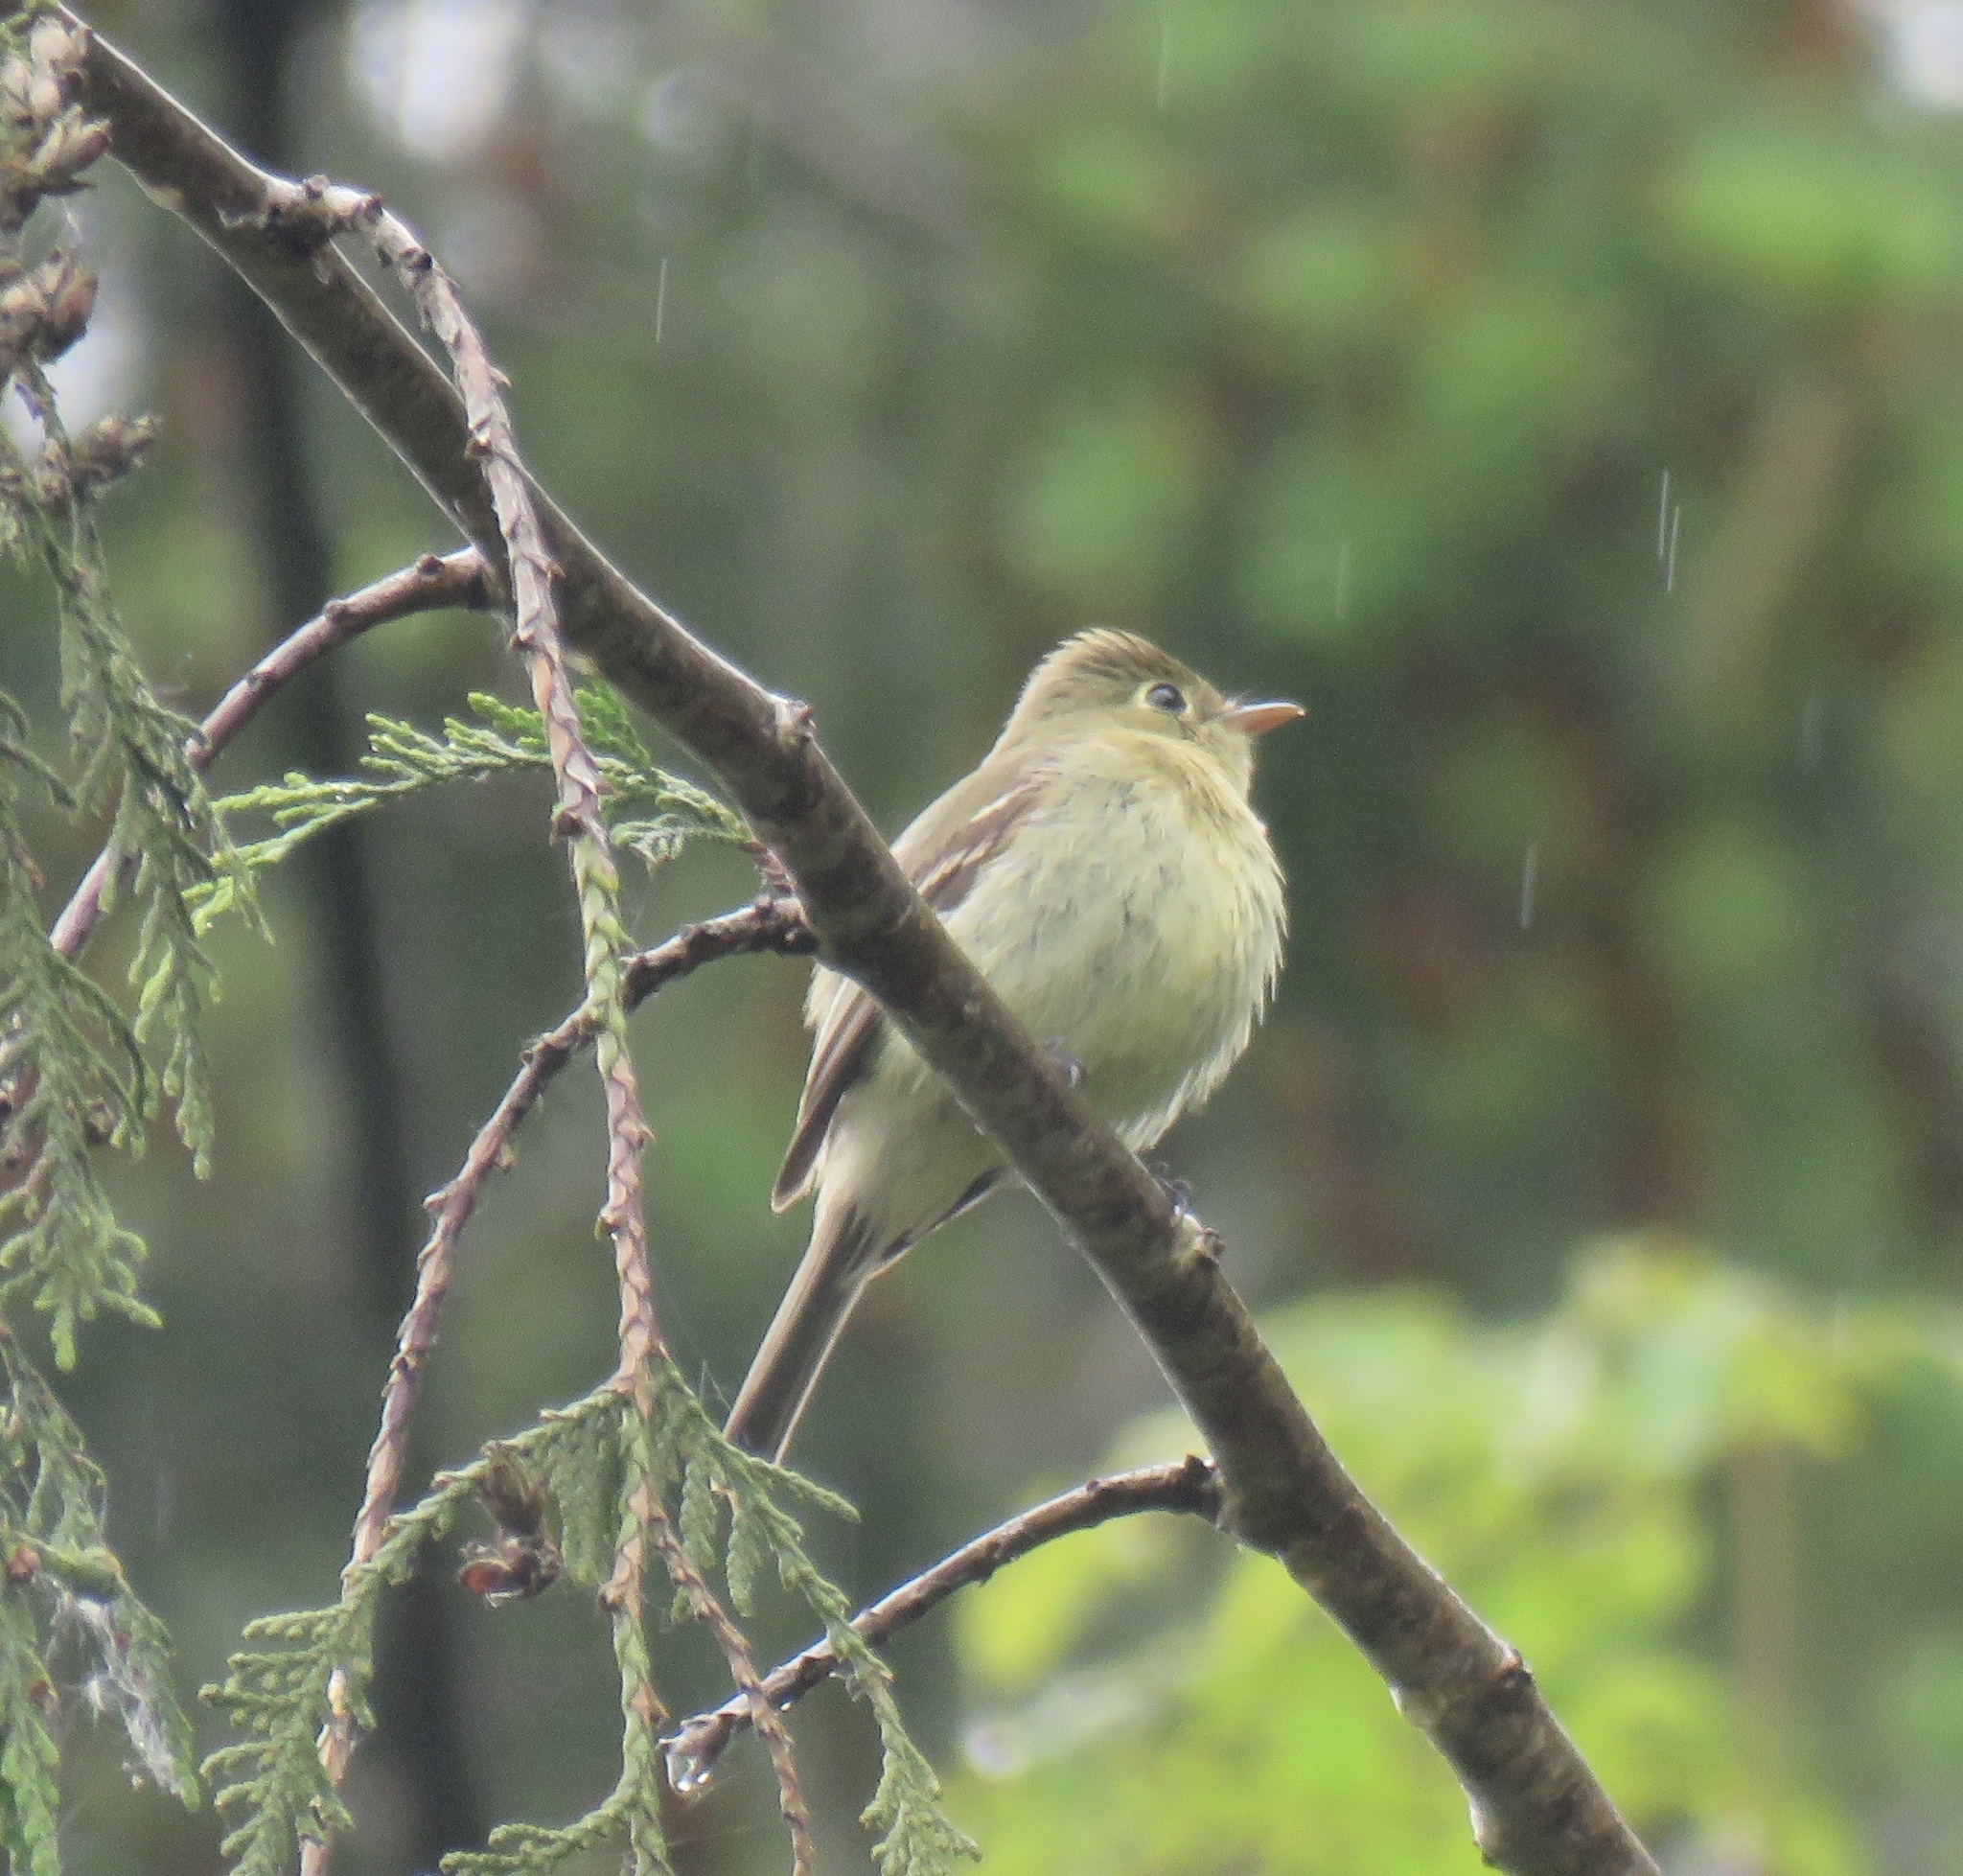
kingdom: Animalia
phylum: Chordata
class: Aves
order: Passeriformes
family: Tyrannidae
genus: Empidonax
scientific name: Empidonax difficilis
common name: Pacific-slope flycatcher
